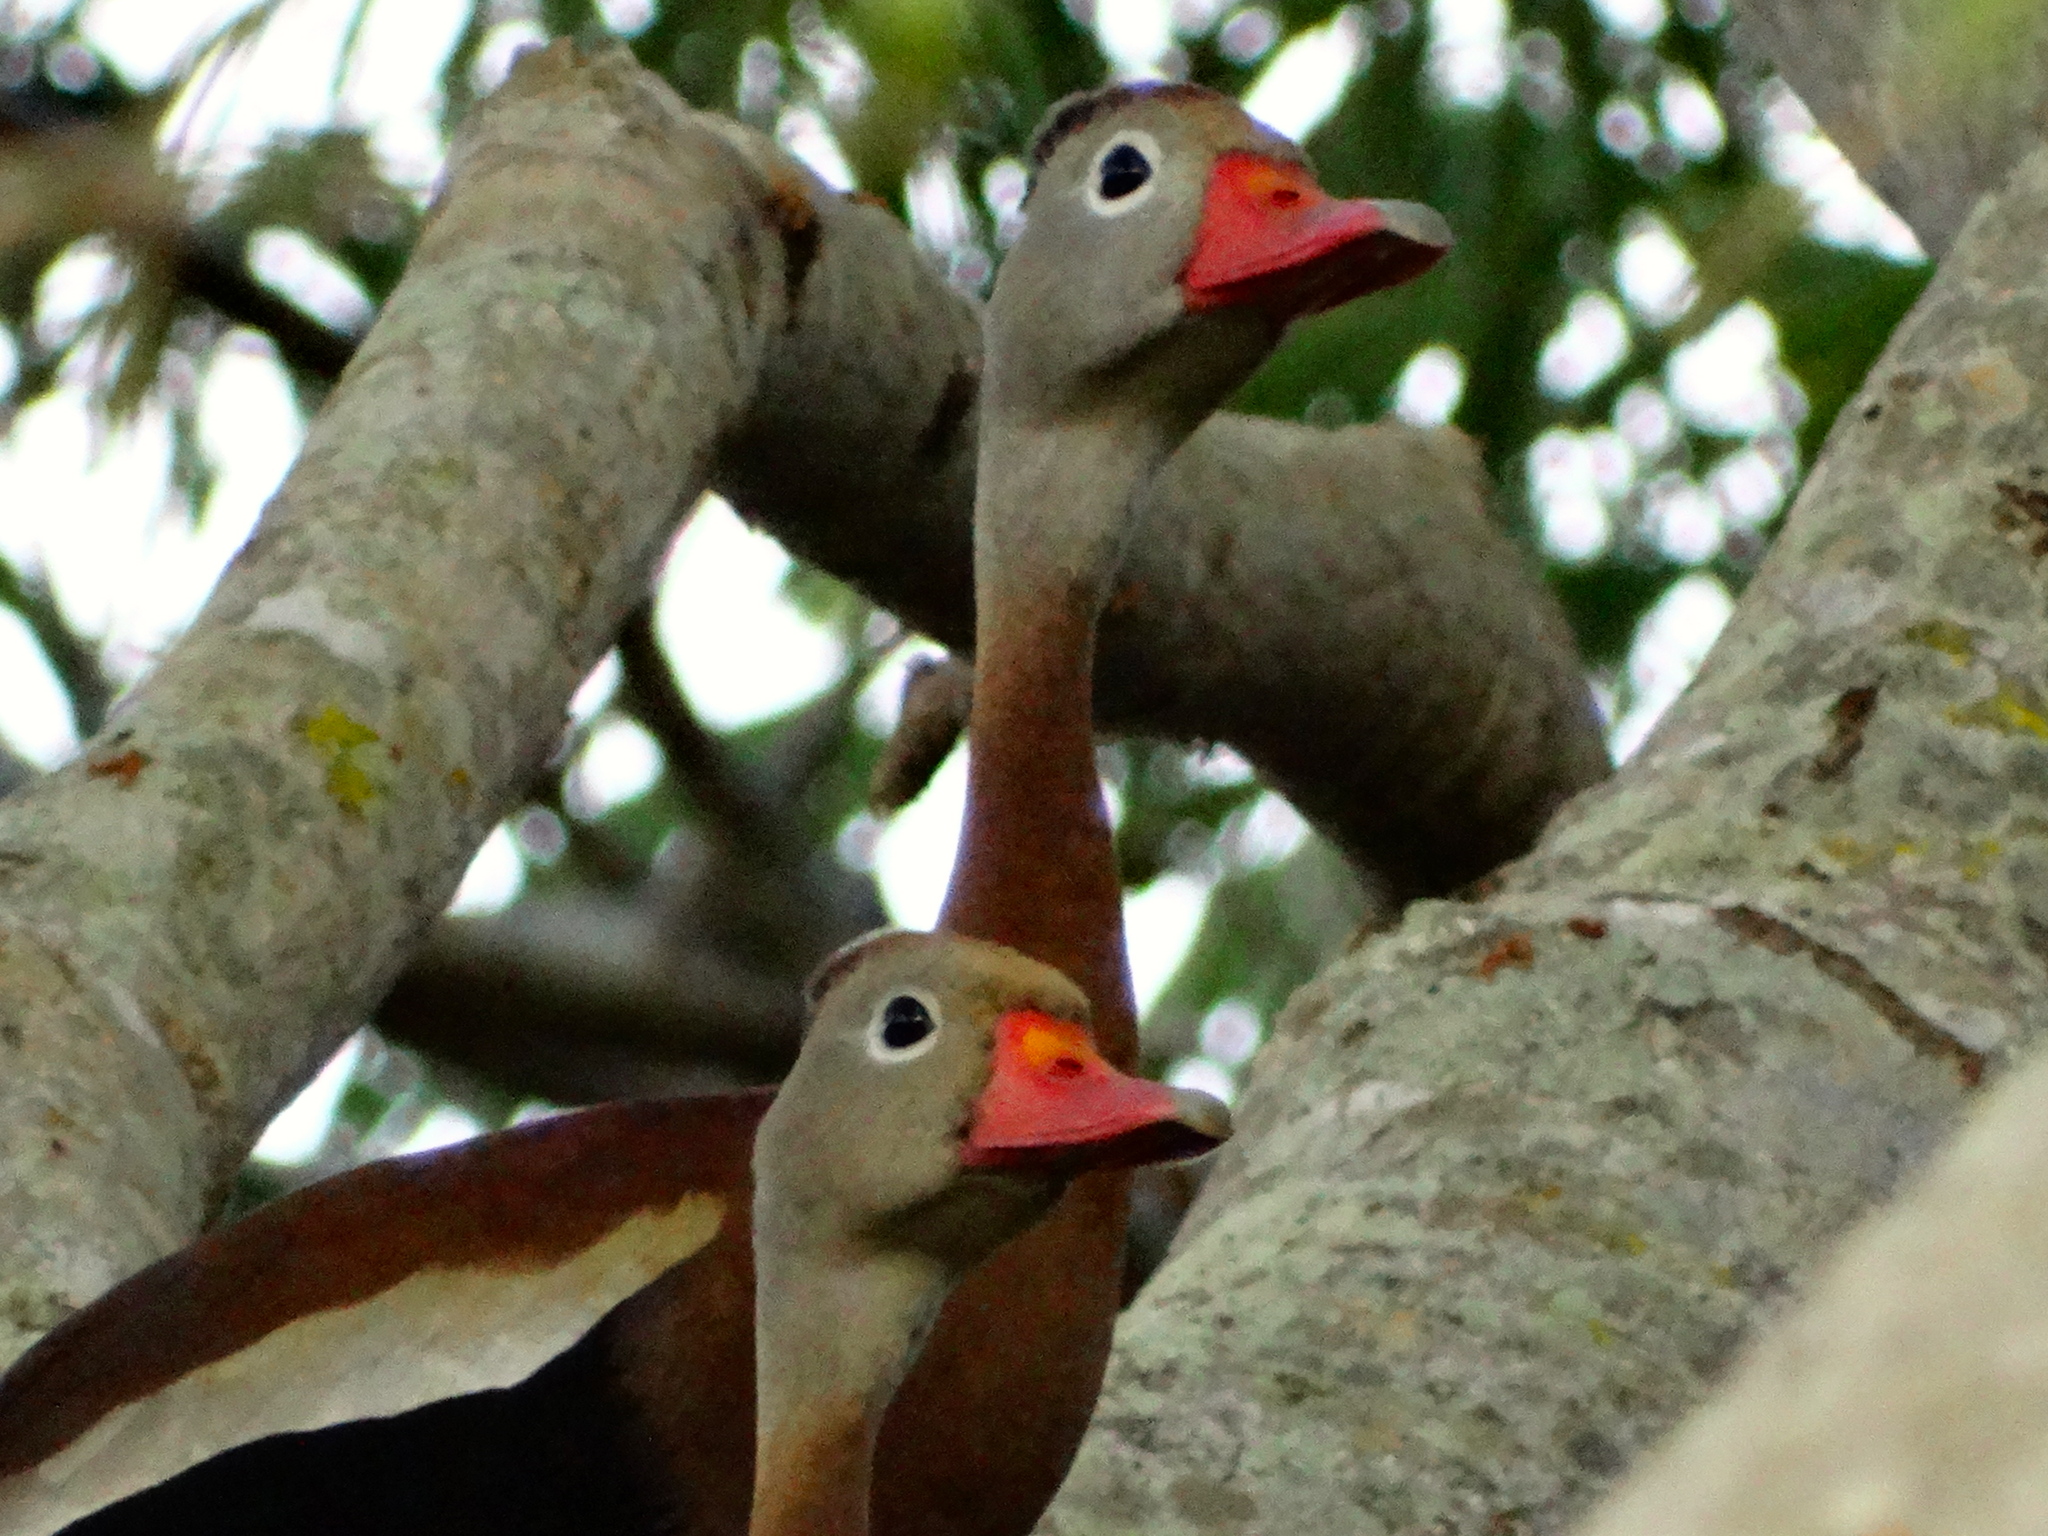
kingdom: Animalia
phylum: Chordata
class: Aves
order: Anseriformes
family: Anatidae
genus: Dendrocygna
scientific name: Dendrocygna autumnalis
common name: Black-bellied whistling duck
